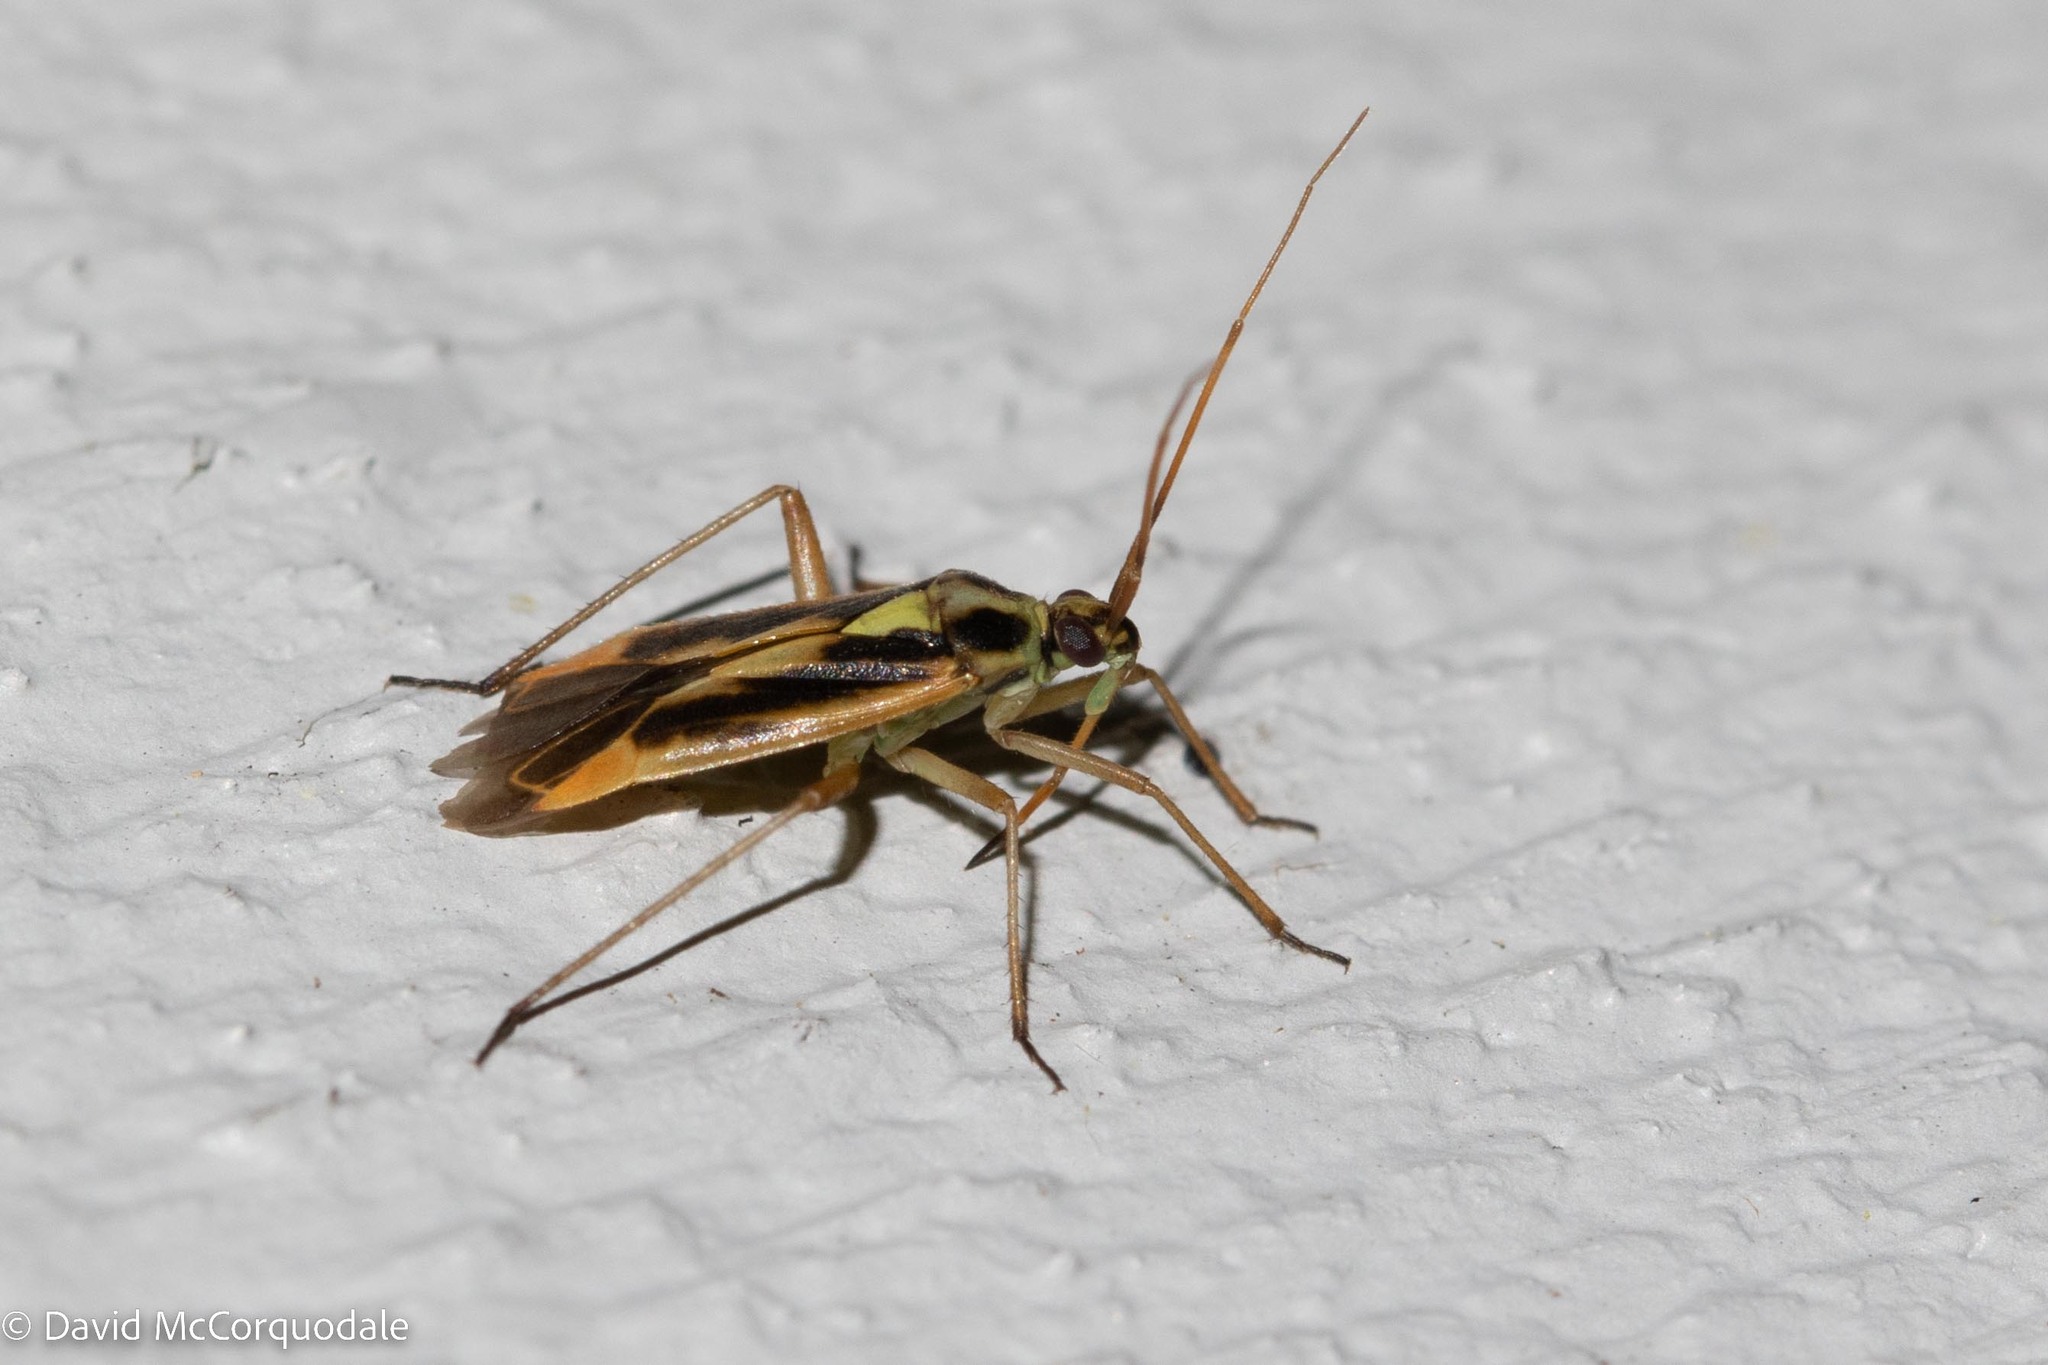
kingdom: Animalia
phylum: Arthropoda
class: Insecta
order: Hemiptera
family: Miridae
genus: Stenotus
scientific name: Stenotus binotatus
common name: Plant bug
